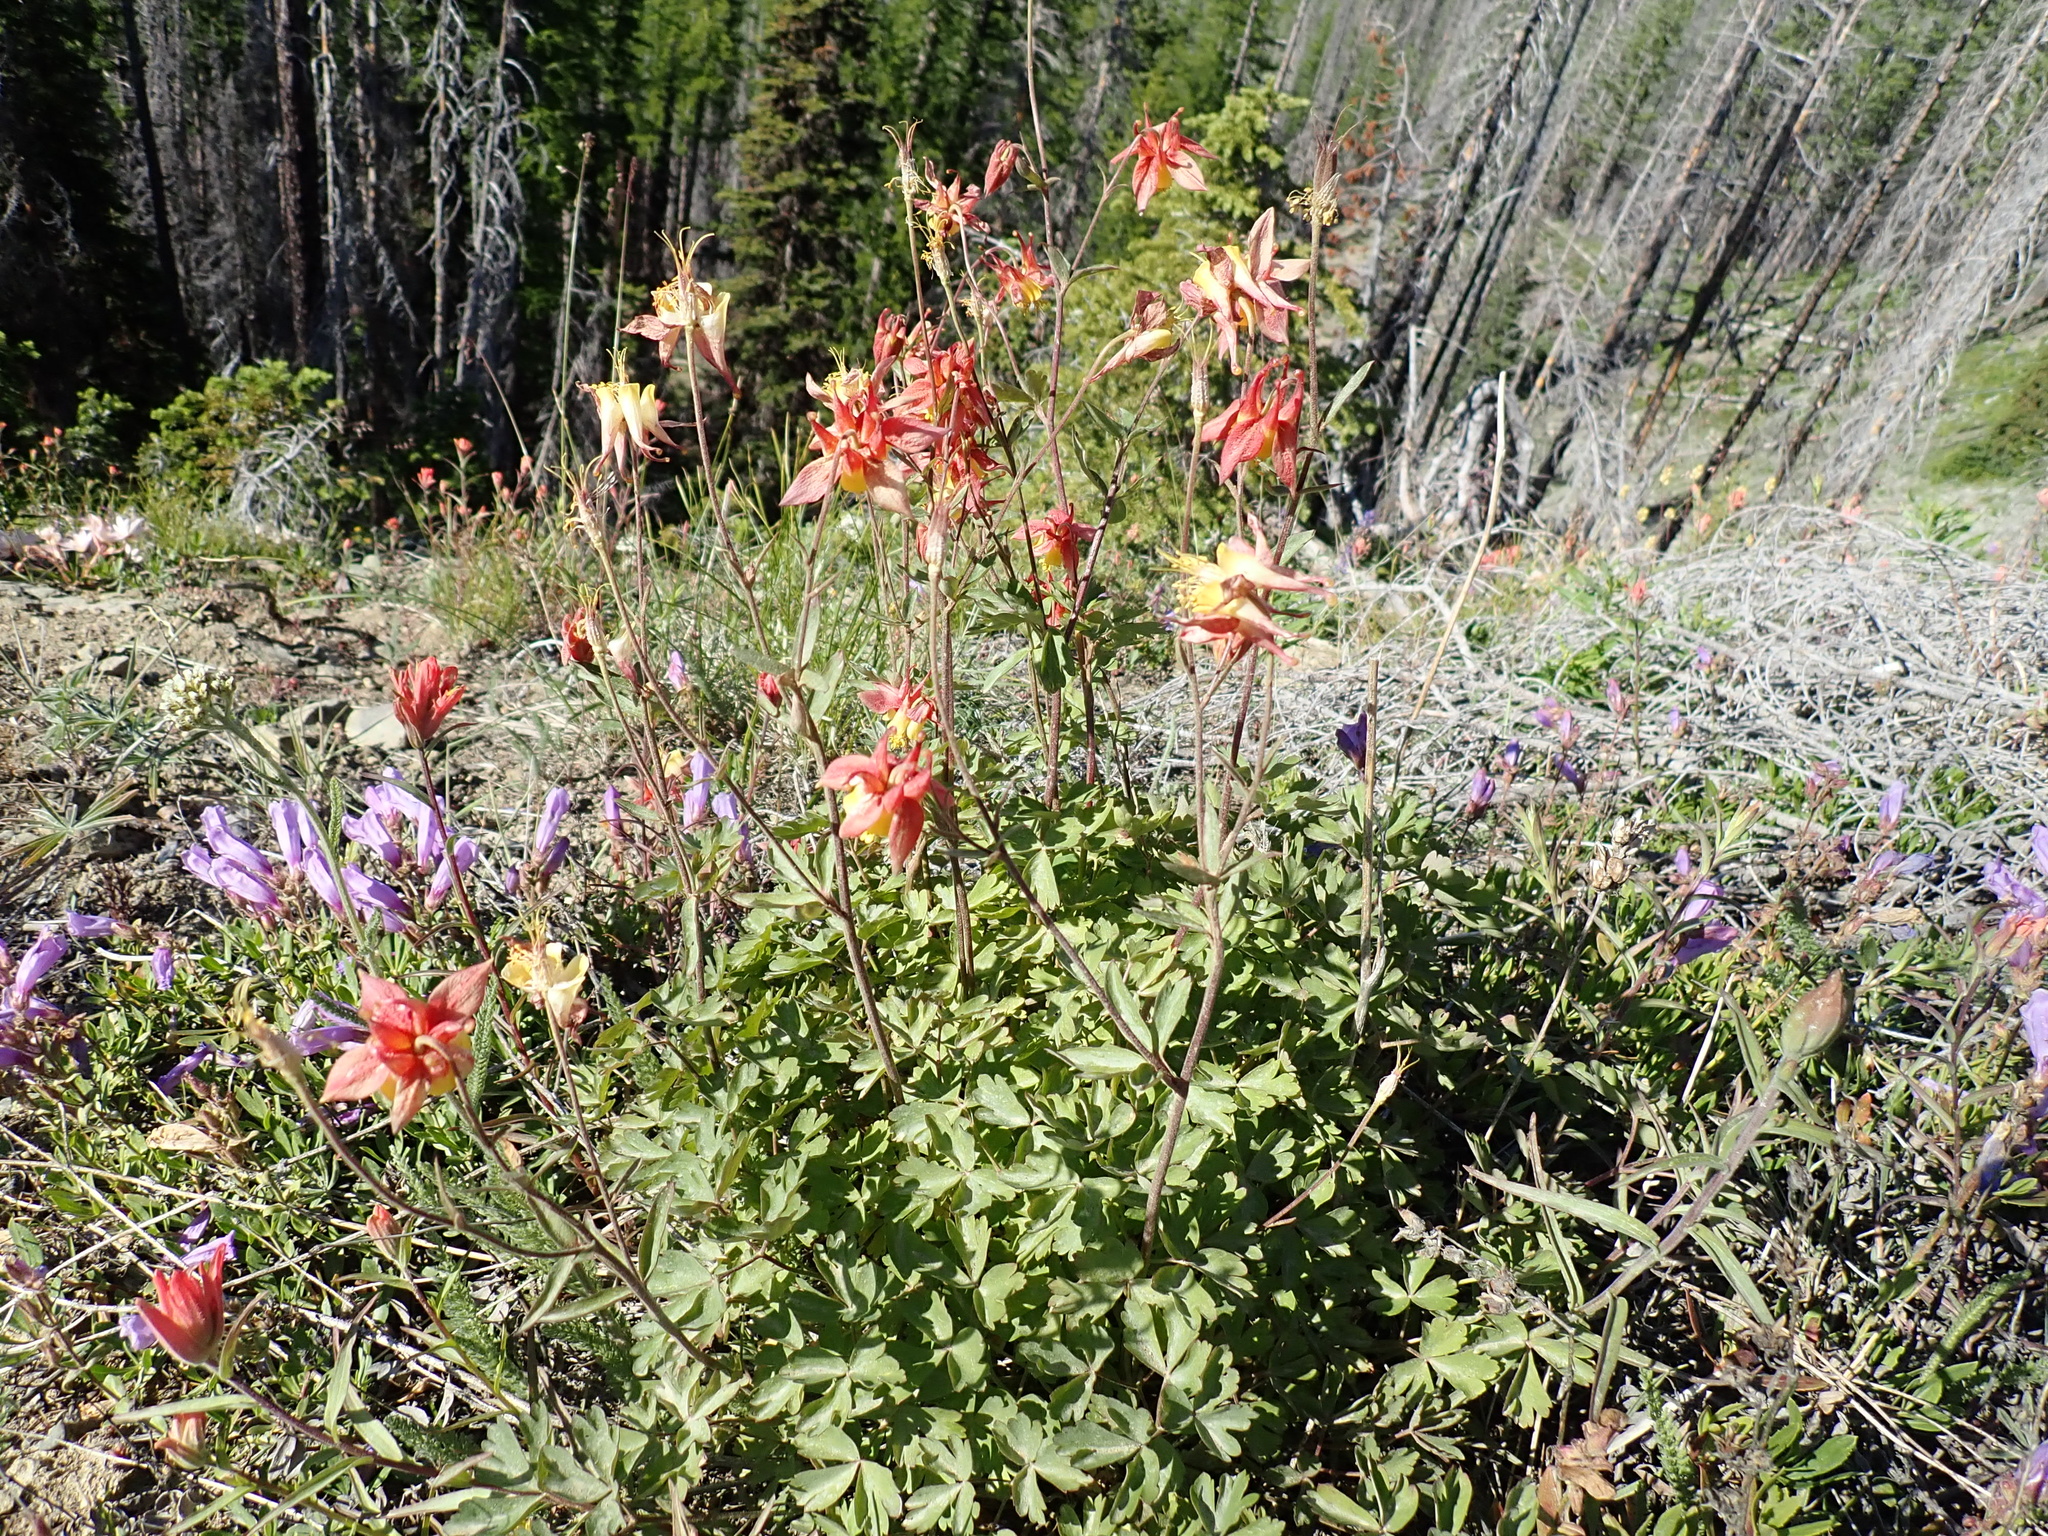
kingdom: Plantae
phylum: Tracheophyta
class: Magnoliopsida
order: Ranunculales
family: Ranunculaceae
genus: Aquilegia
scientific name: Aquilegia formosa
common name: Sitka columbine
